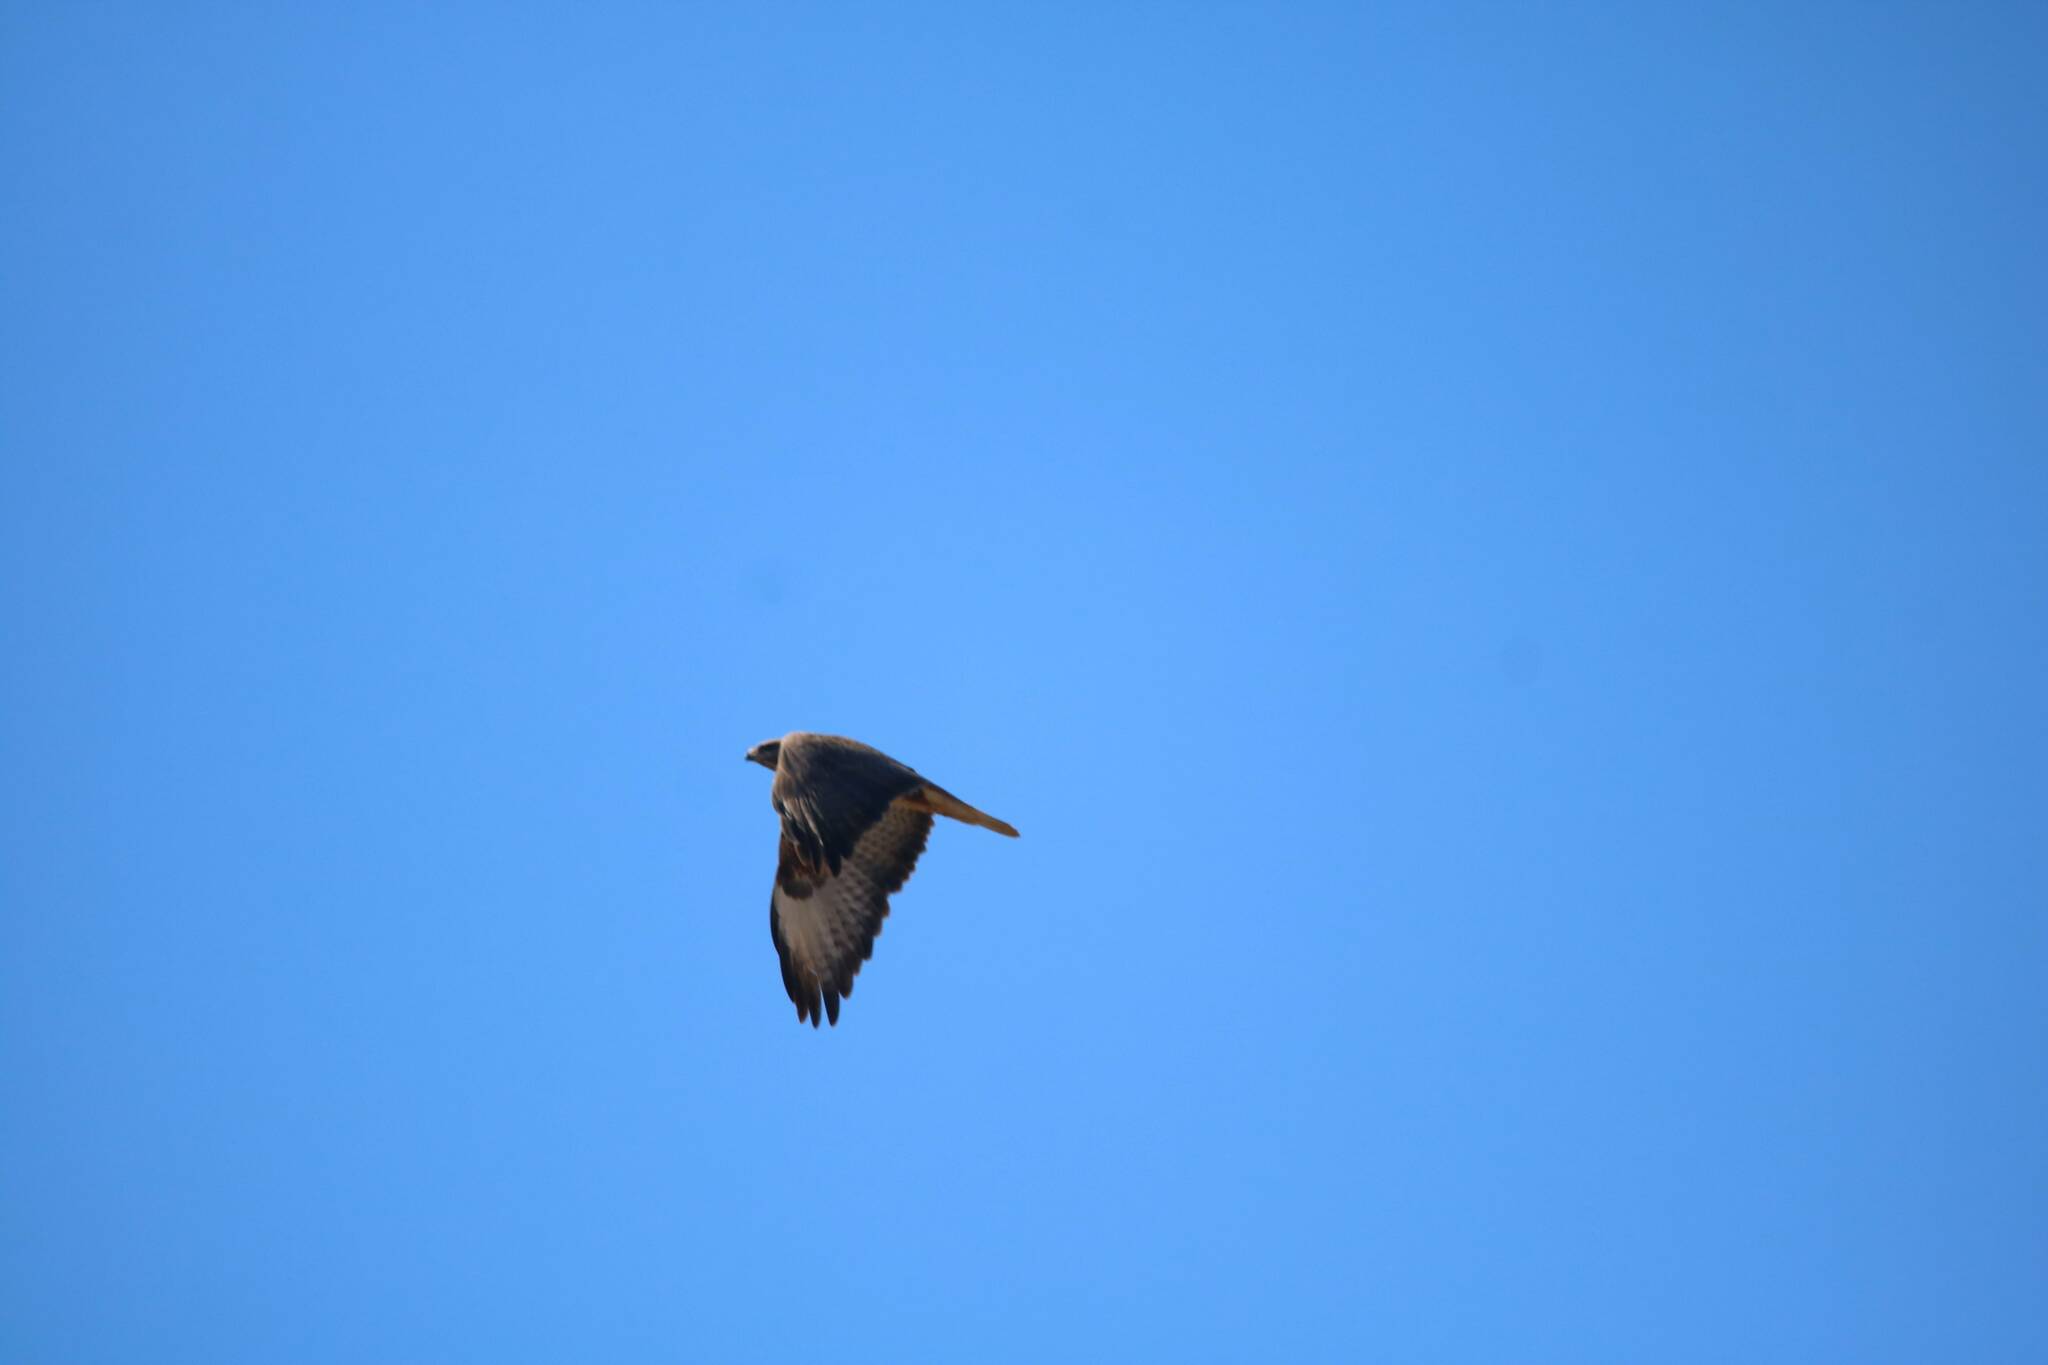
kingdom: Animalia
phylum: Chordata
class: Aves
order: Accipitriformes
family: Accipitridae
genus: Buteo
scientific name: Buteo rufinus
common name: Long-legged buzzard
